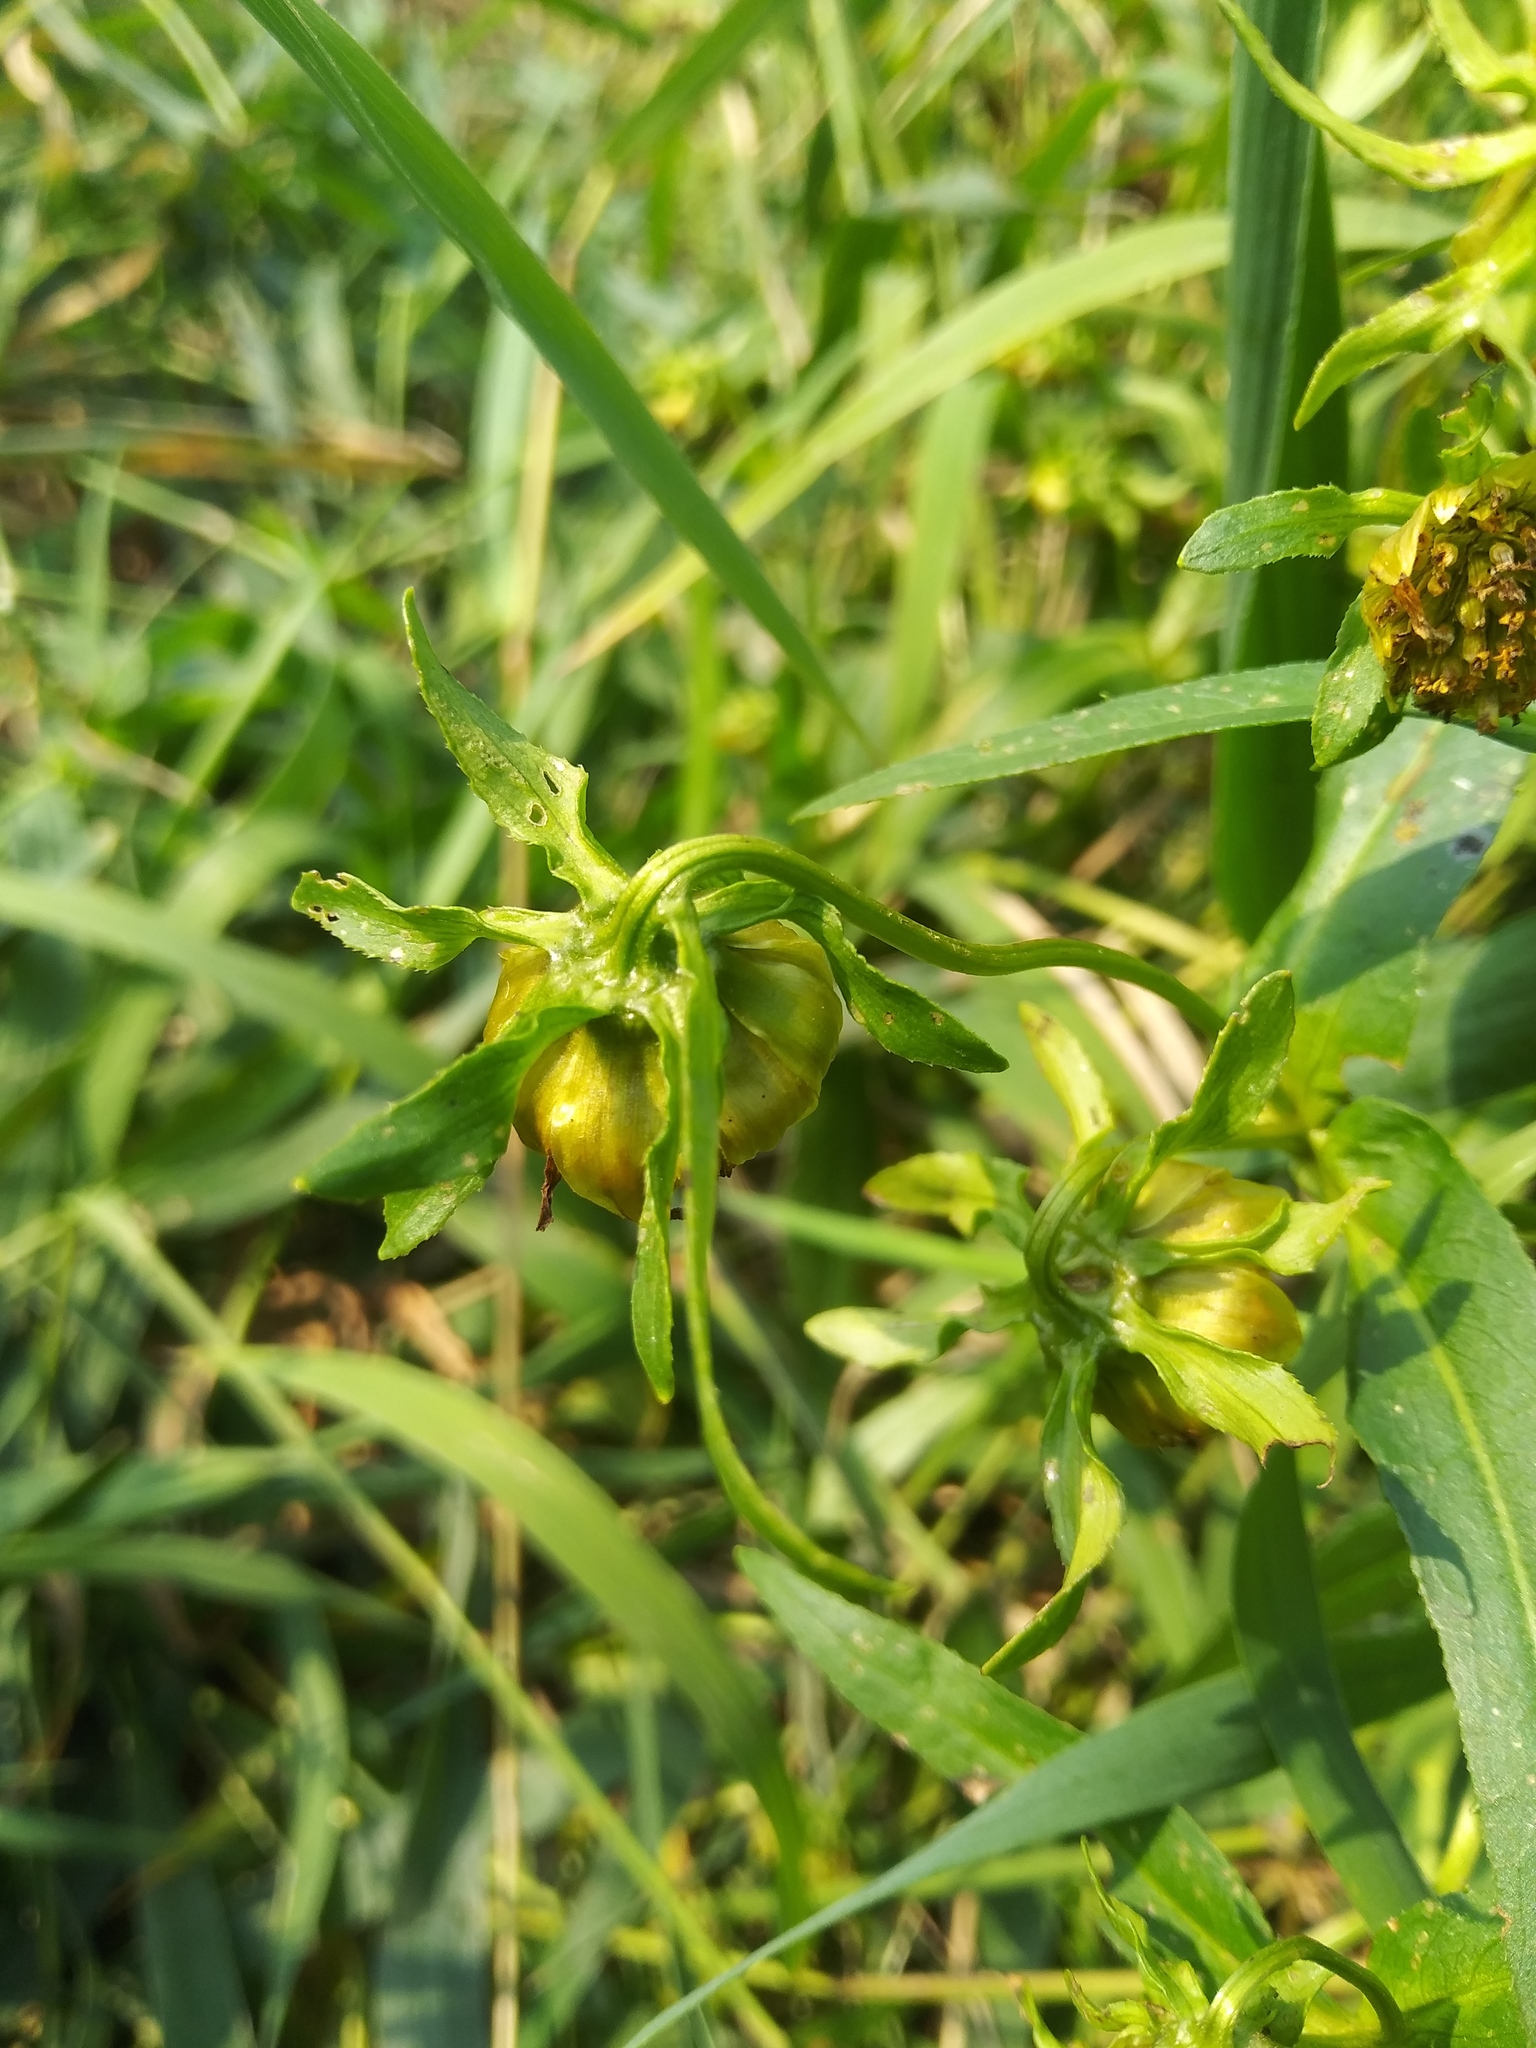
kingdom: Plantae
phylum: Tracheophyta
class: Magnoliopsida
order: Asterales
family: Asteraceae
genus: Bidens
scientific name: Bidens cernua
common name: Nodding bur-marigold
